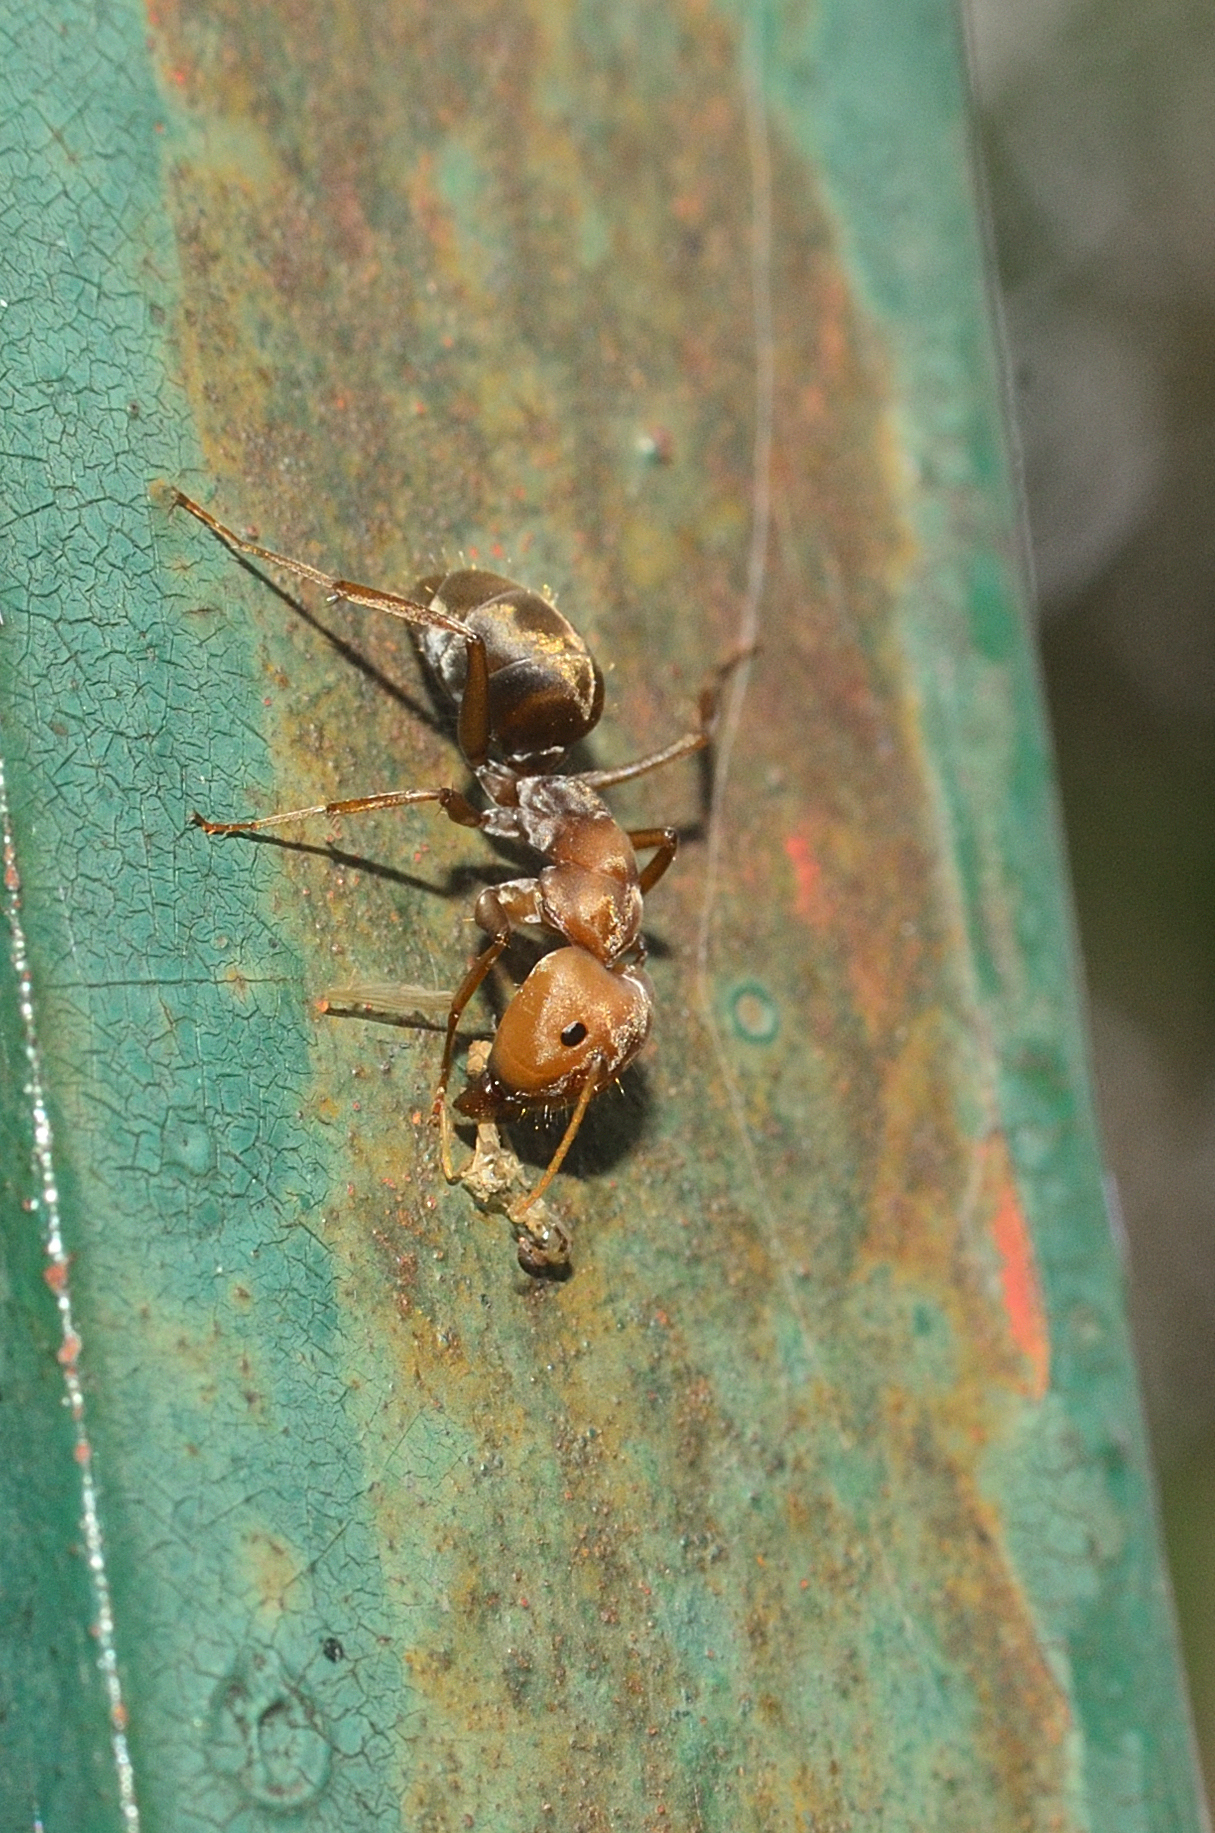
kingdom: Animalia
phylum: Arthropoda
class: Insecta
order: Hymenoptera
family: Formicidae
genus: Camponotus
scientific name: Camponotus rufoglaucus
